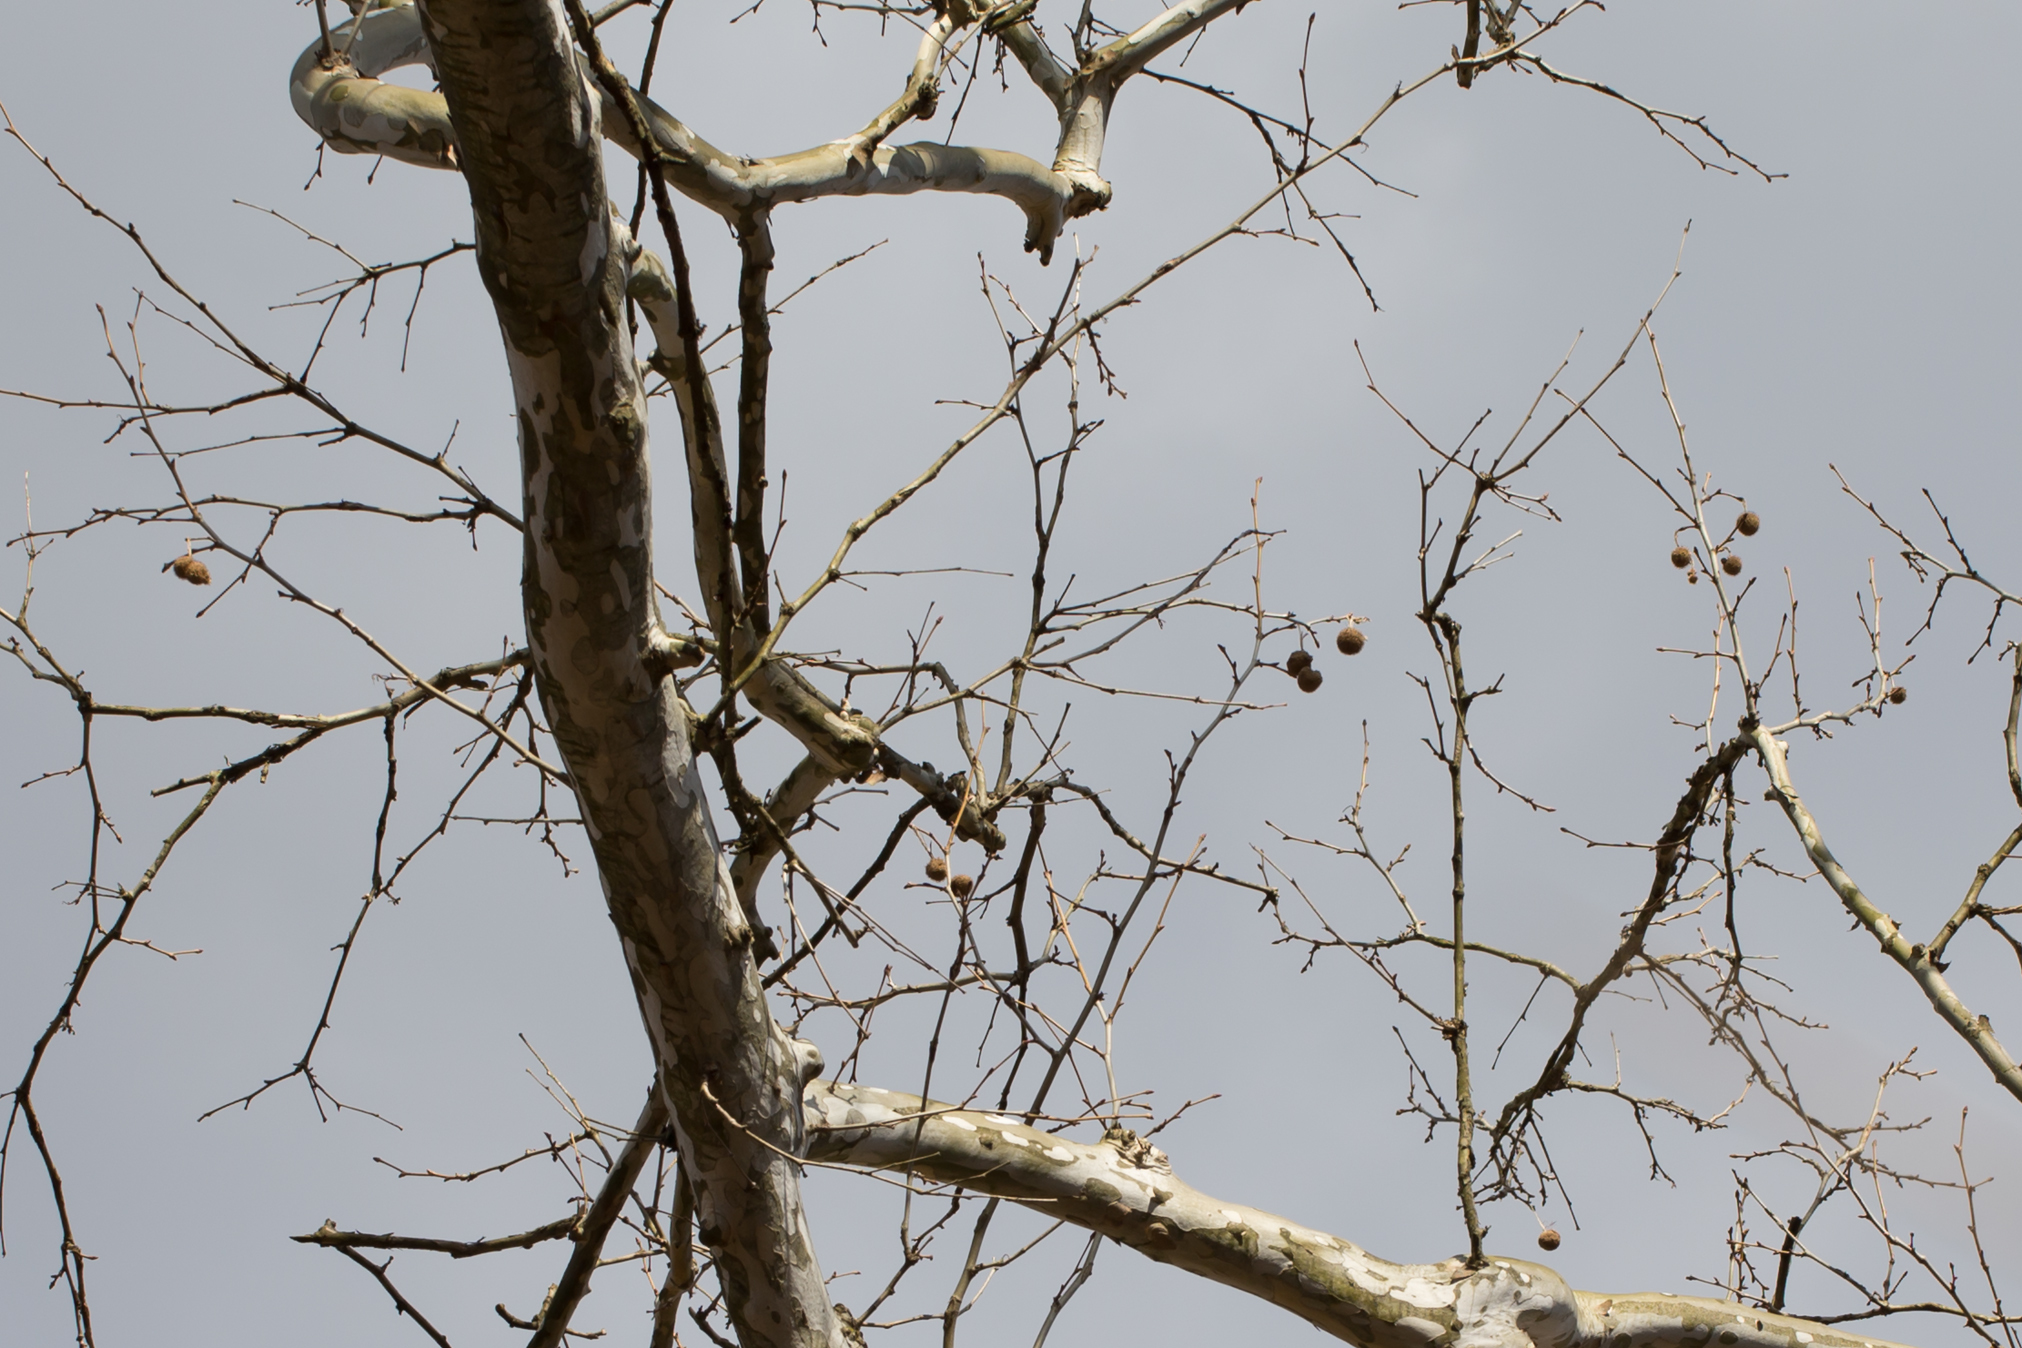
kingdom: Plantae
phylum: Tracheophyta
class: Magnoliopsida
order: Proteales
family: Platanaceae
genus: Platanus
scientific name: Platanus occidentalis
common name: American sycamore
